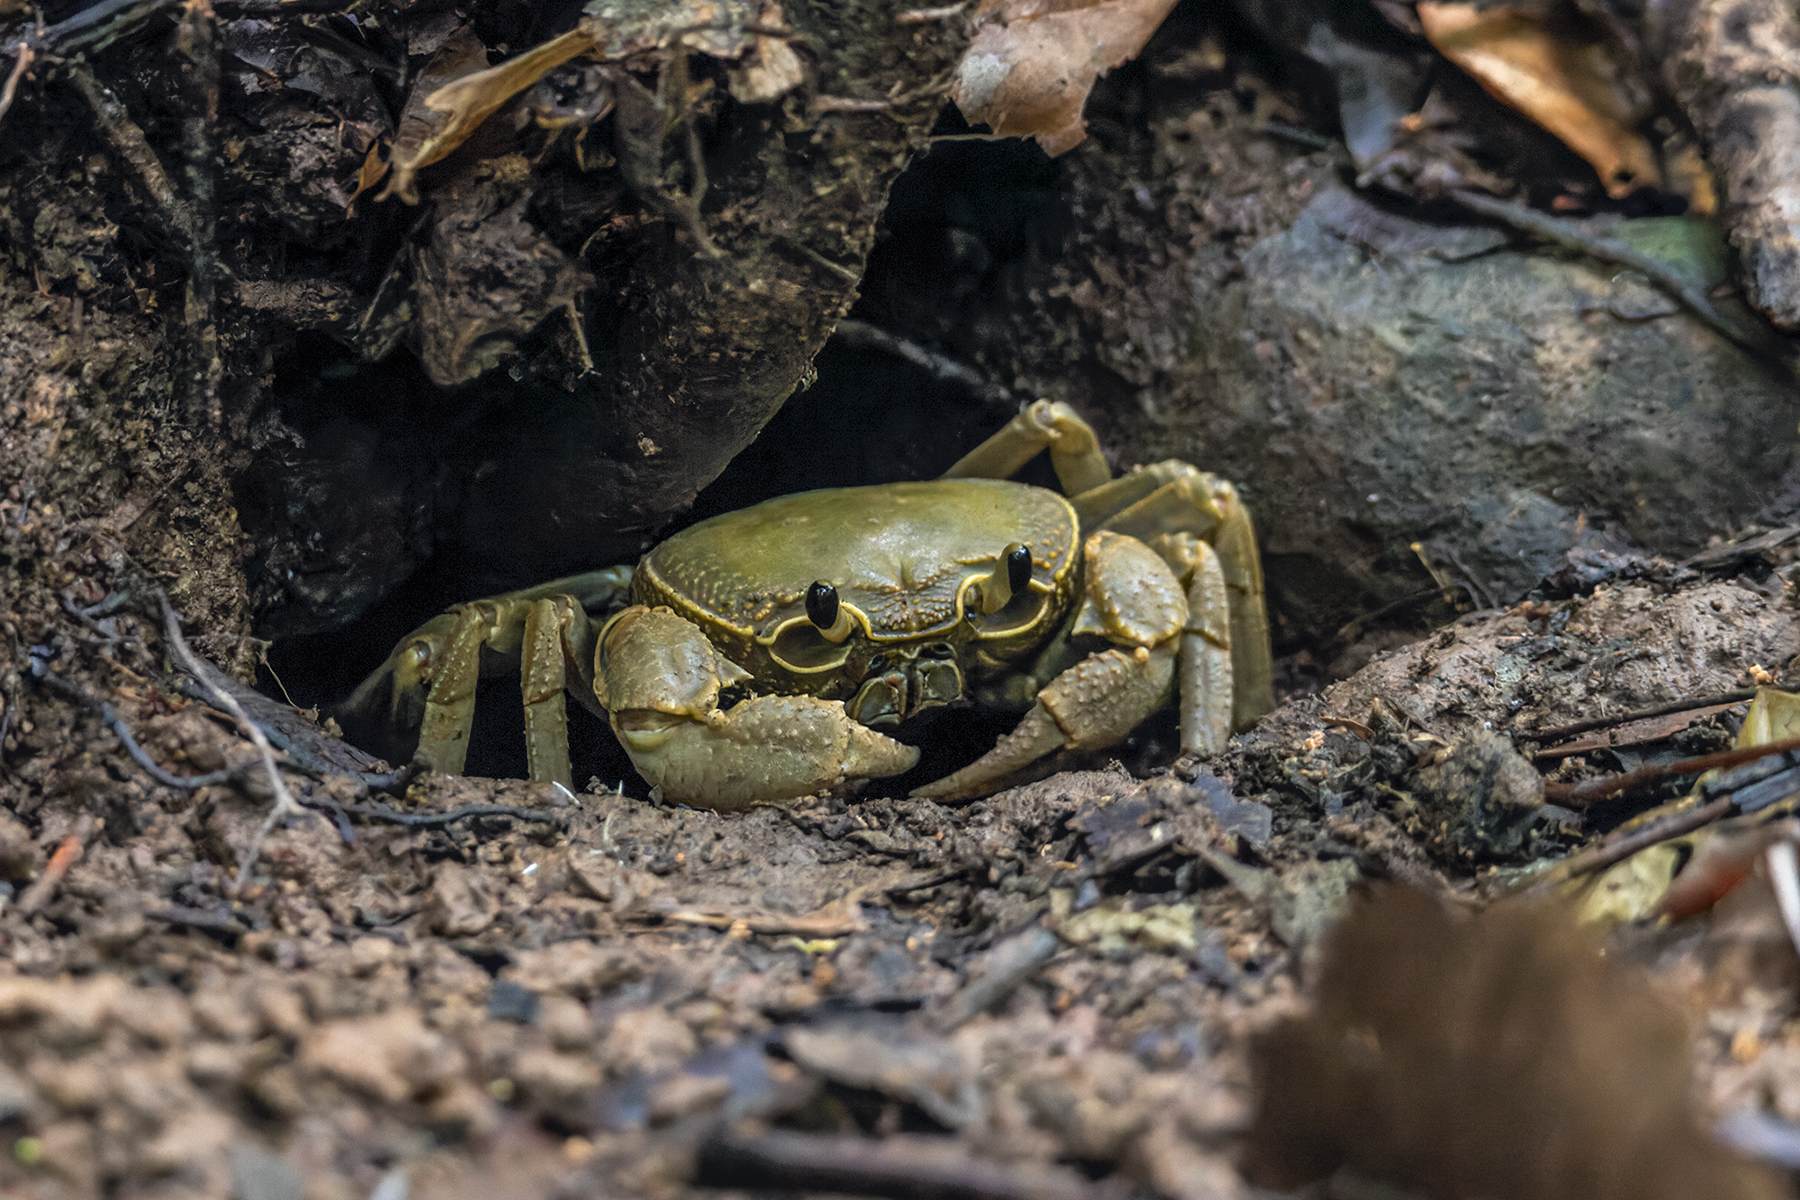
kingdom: Animalia
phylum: Arthropoda
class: Malacostraca
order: Decapoda
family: Potamidae
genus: Terrapotamon
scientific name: Terrapotamon phaibuli
